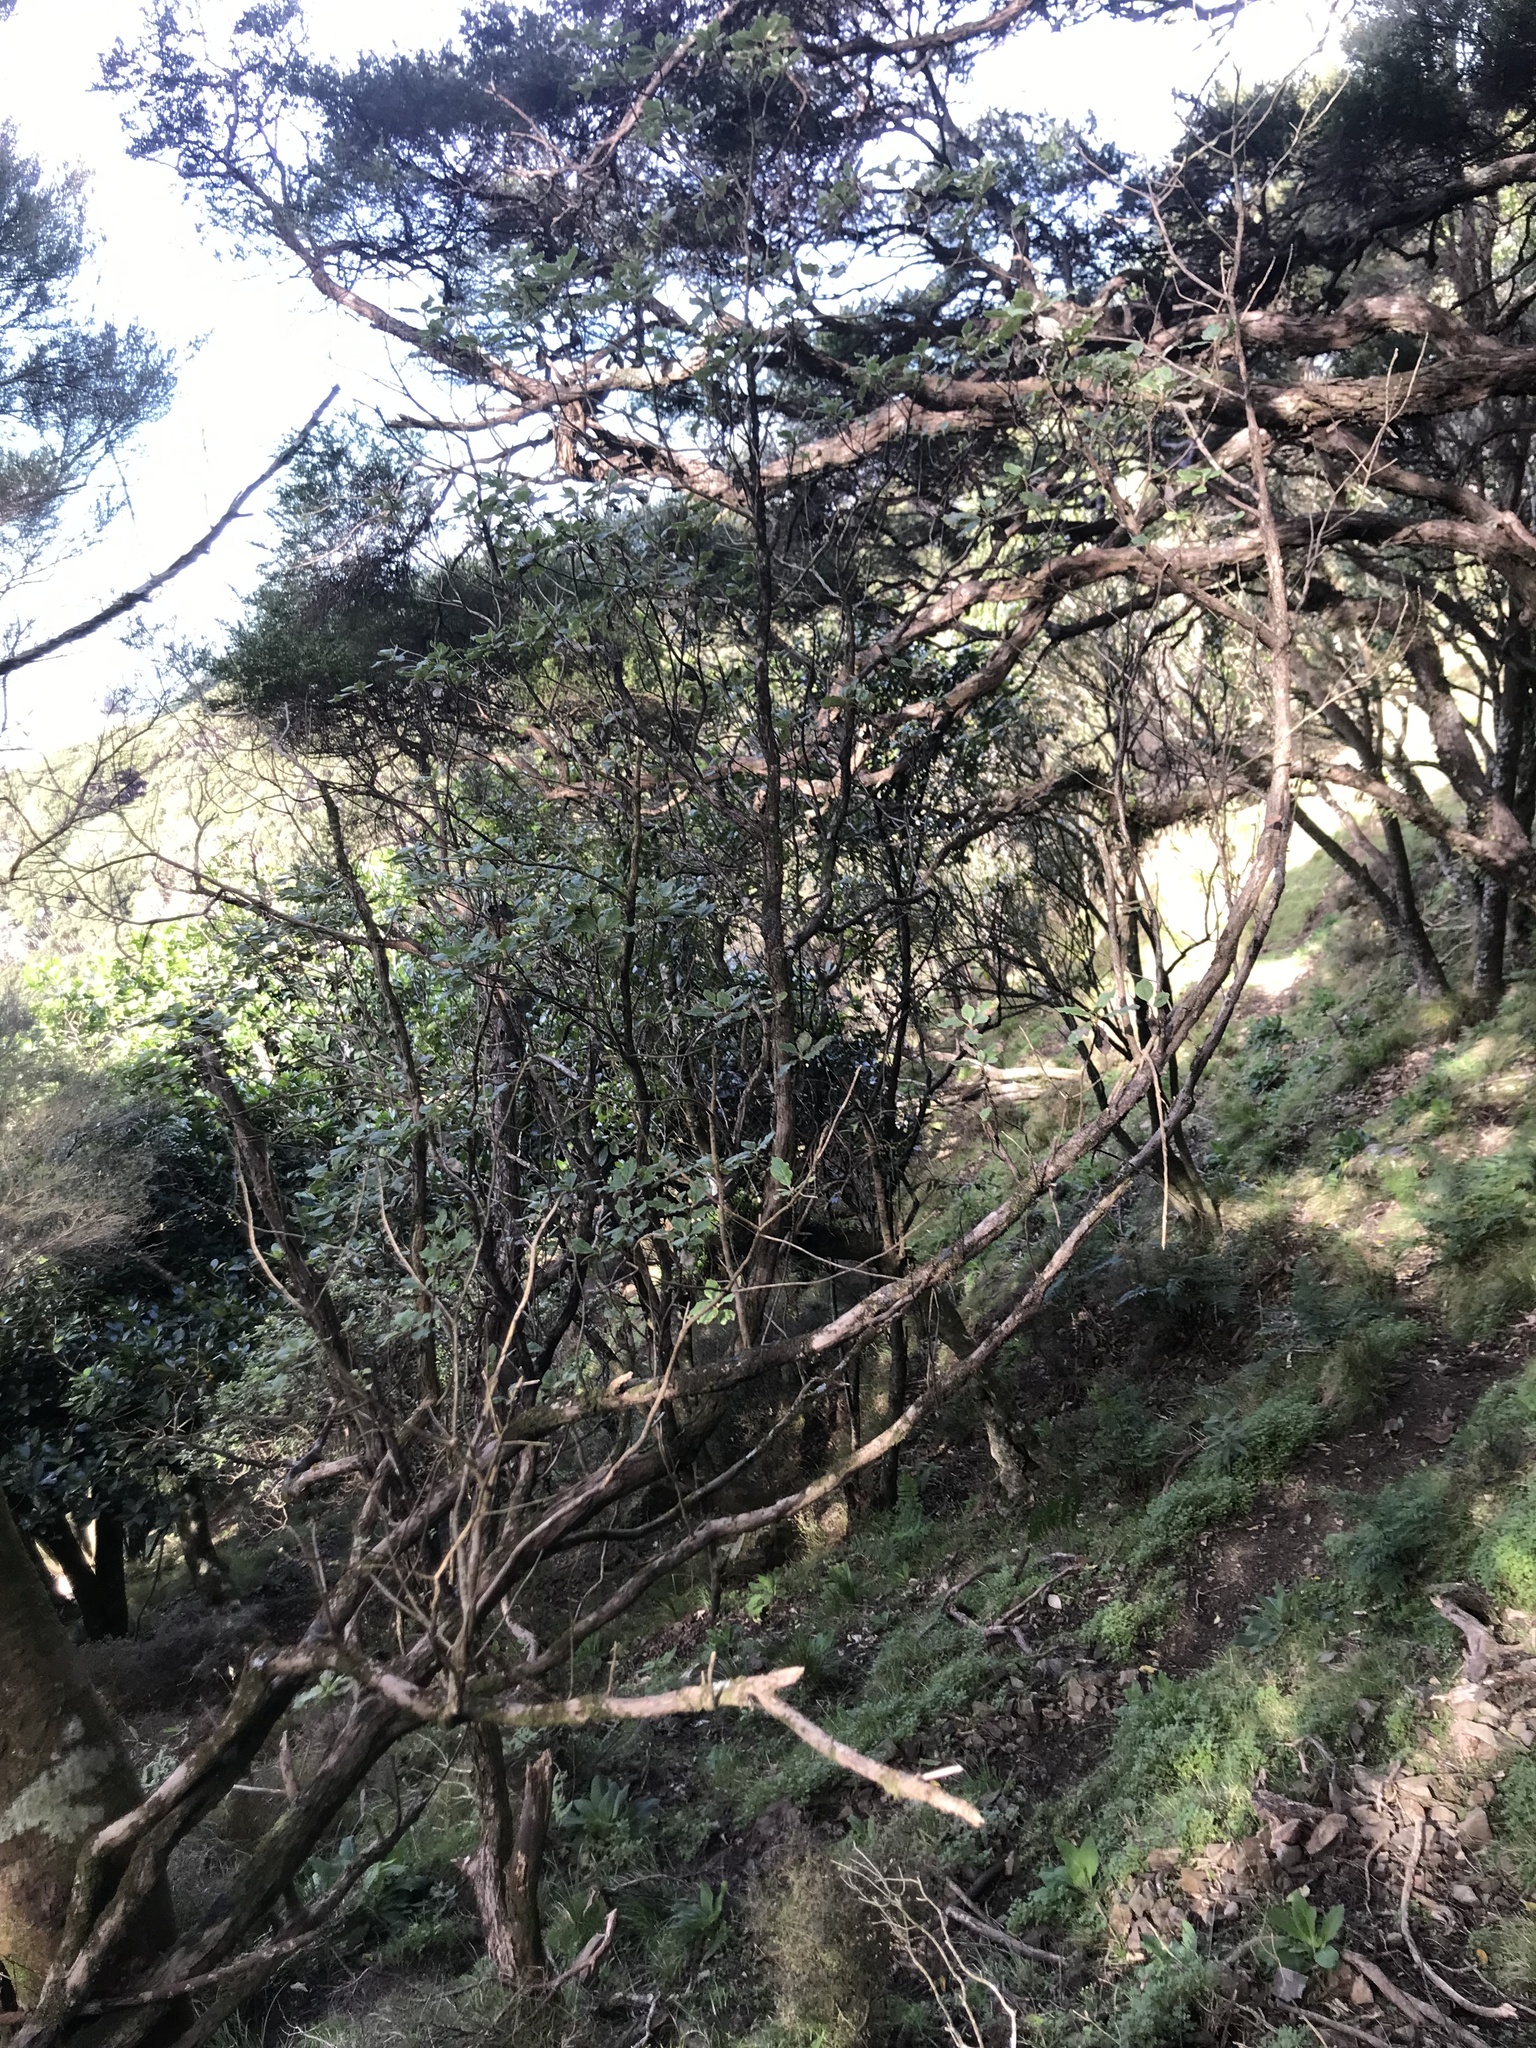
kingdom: Plantae
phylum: Tracheophyta
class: Magnoliopsida
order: Asterales
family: Asteraceae
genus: Brachyglottis
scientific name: Brachyglottis pentacopa
